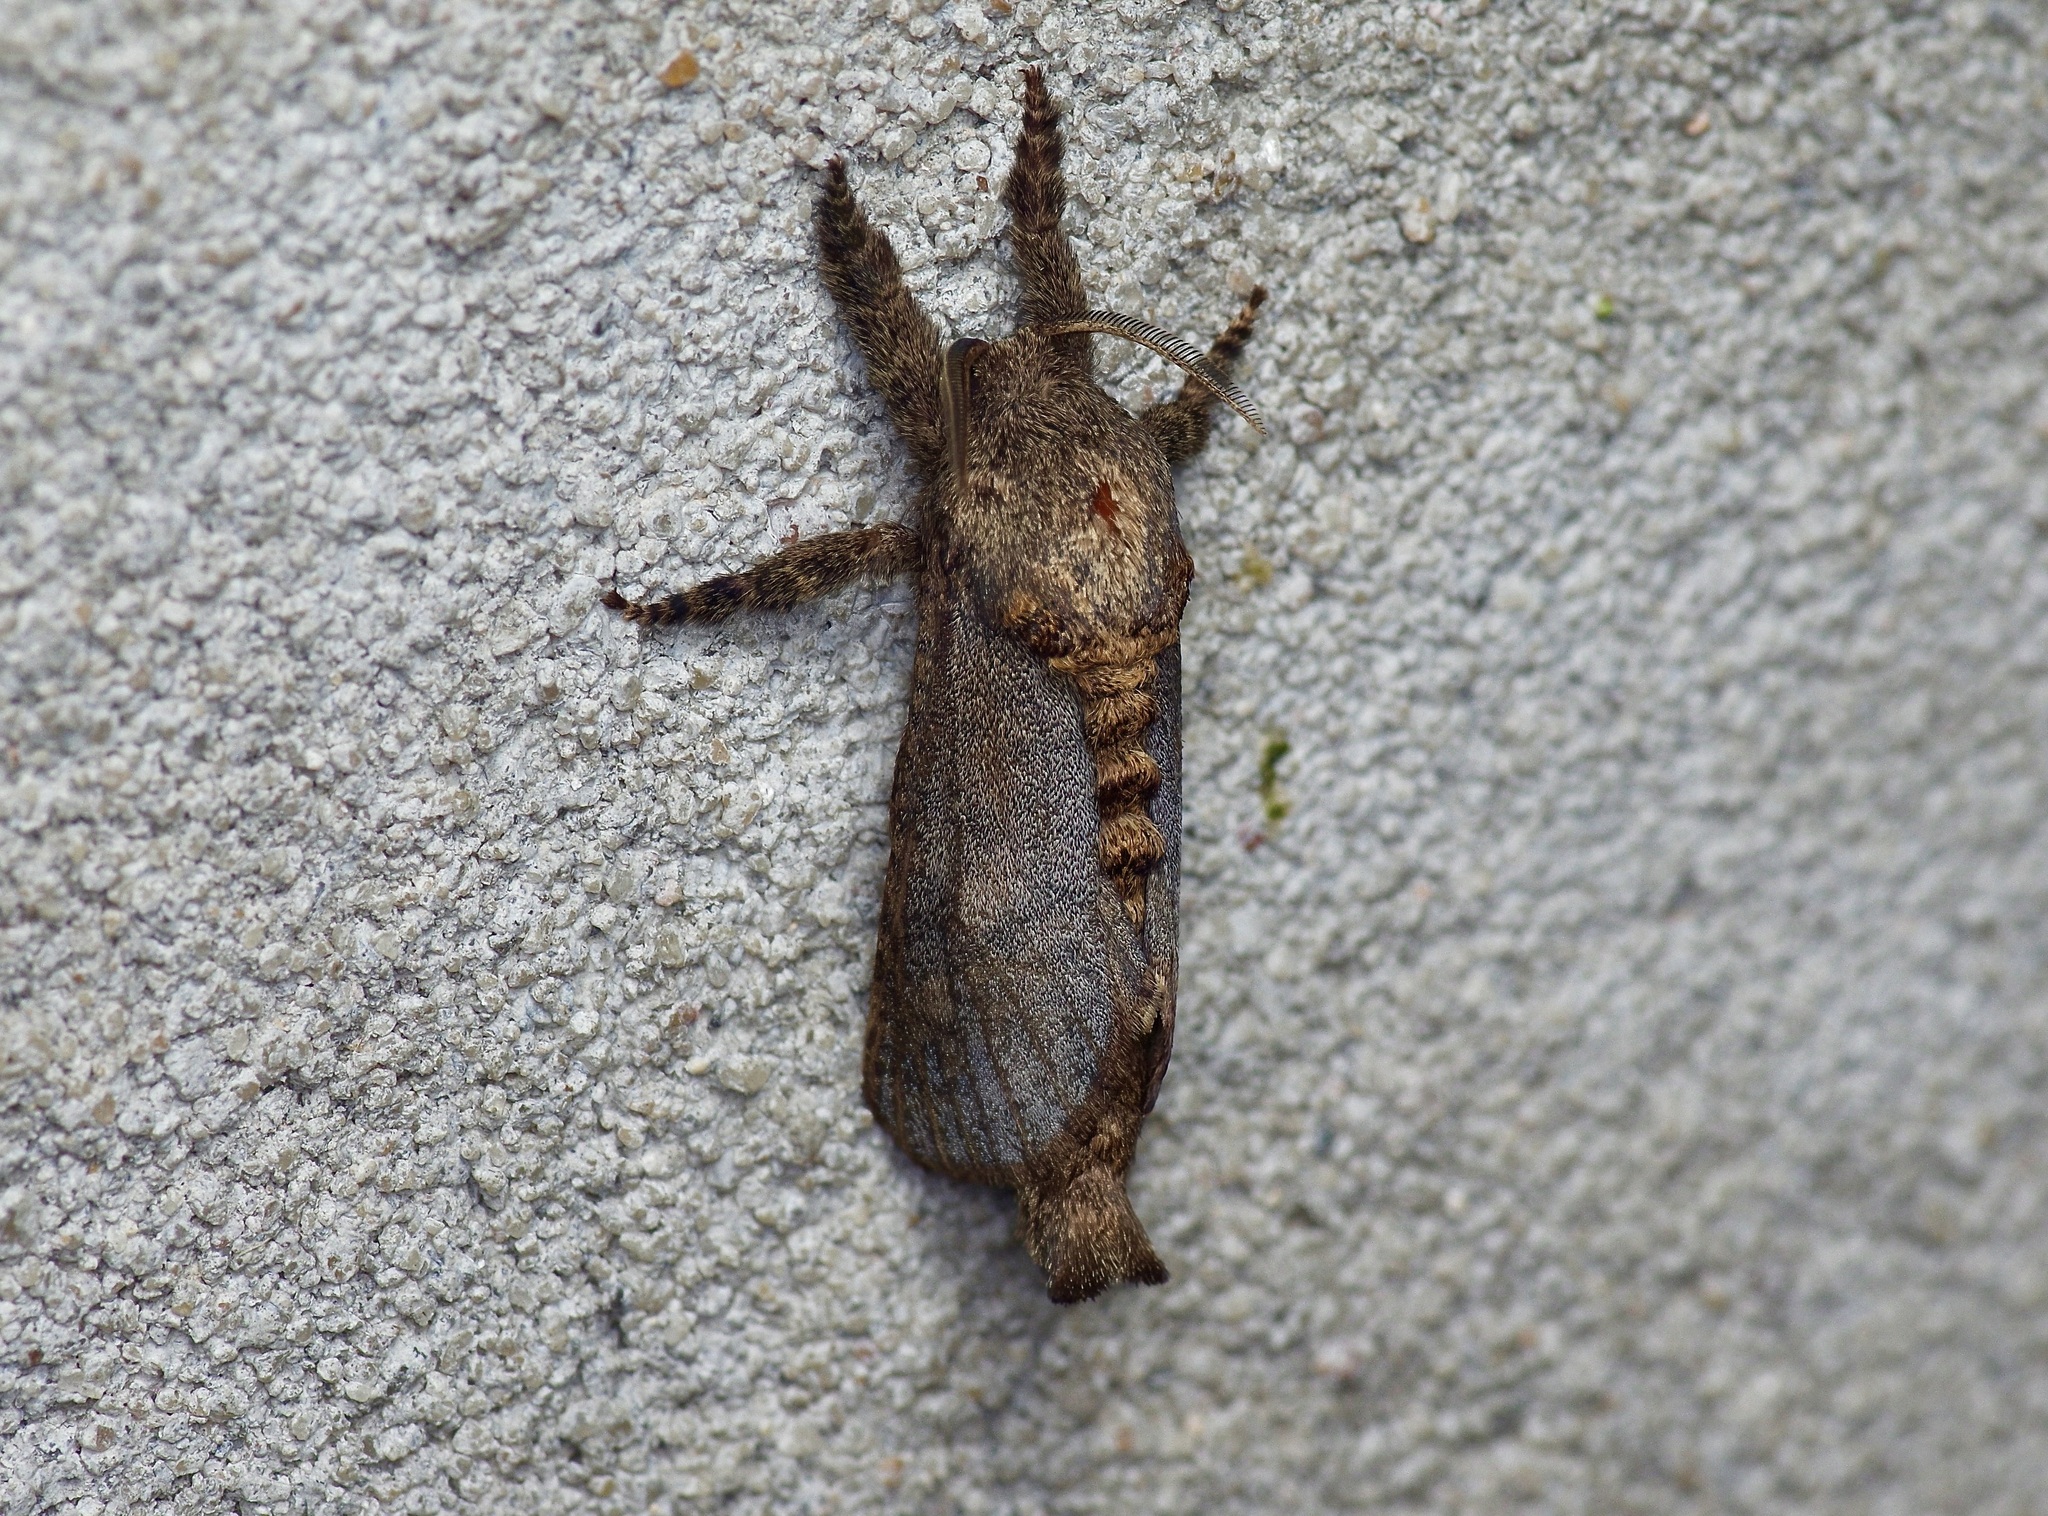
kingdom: Animalia
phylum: Arthropoda
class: Insecta
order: Lepidoptera
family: Cossidae
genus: Givira
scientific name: Givira arbeloides
